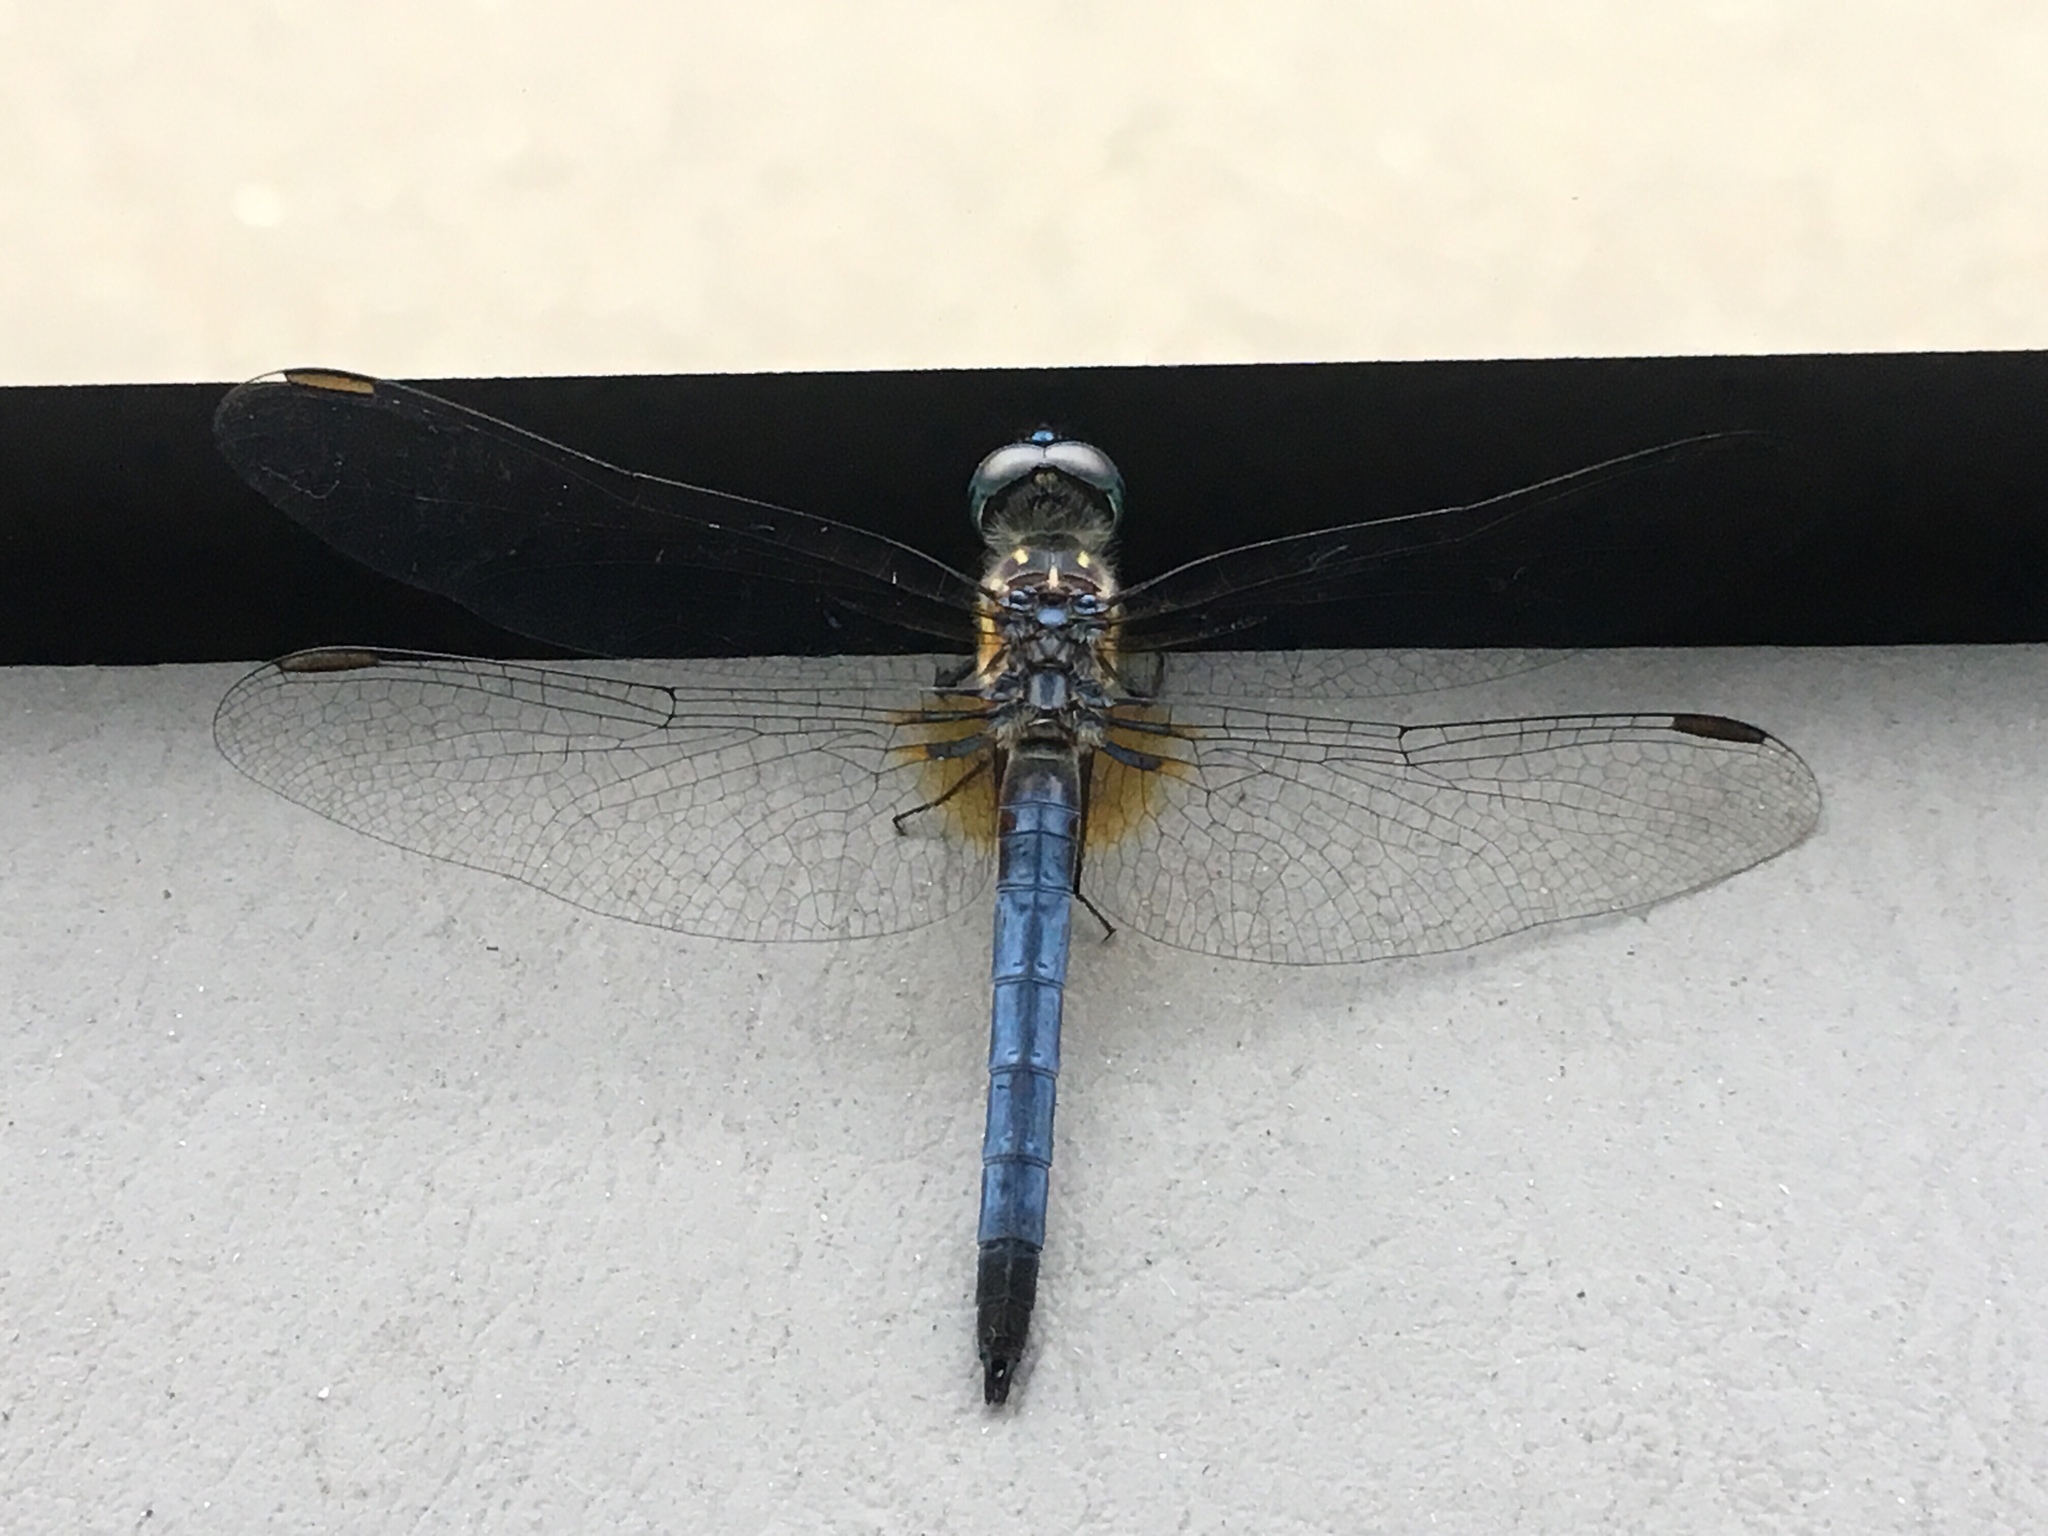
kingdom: Animalia
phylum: Arthropoda
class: Insecta
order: Odonata
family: Libellulidae
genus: Pachydiplax
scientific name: Pachydiplax longipennis
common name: Blue dasher
